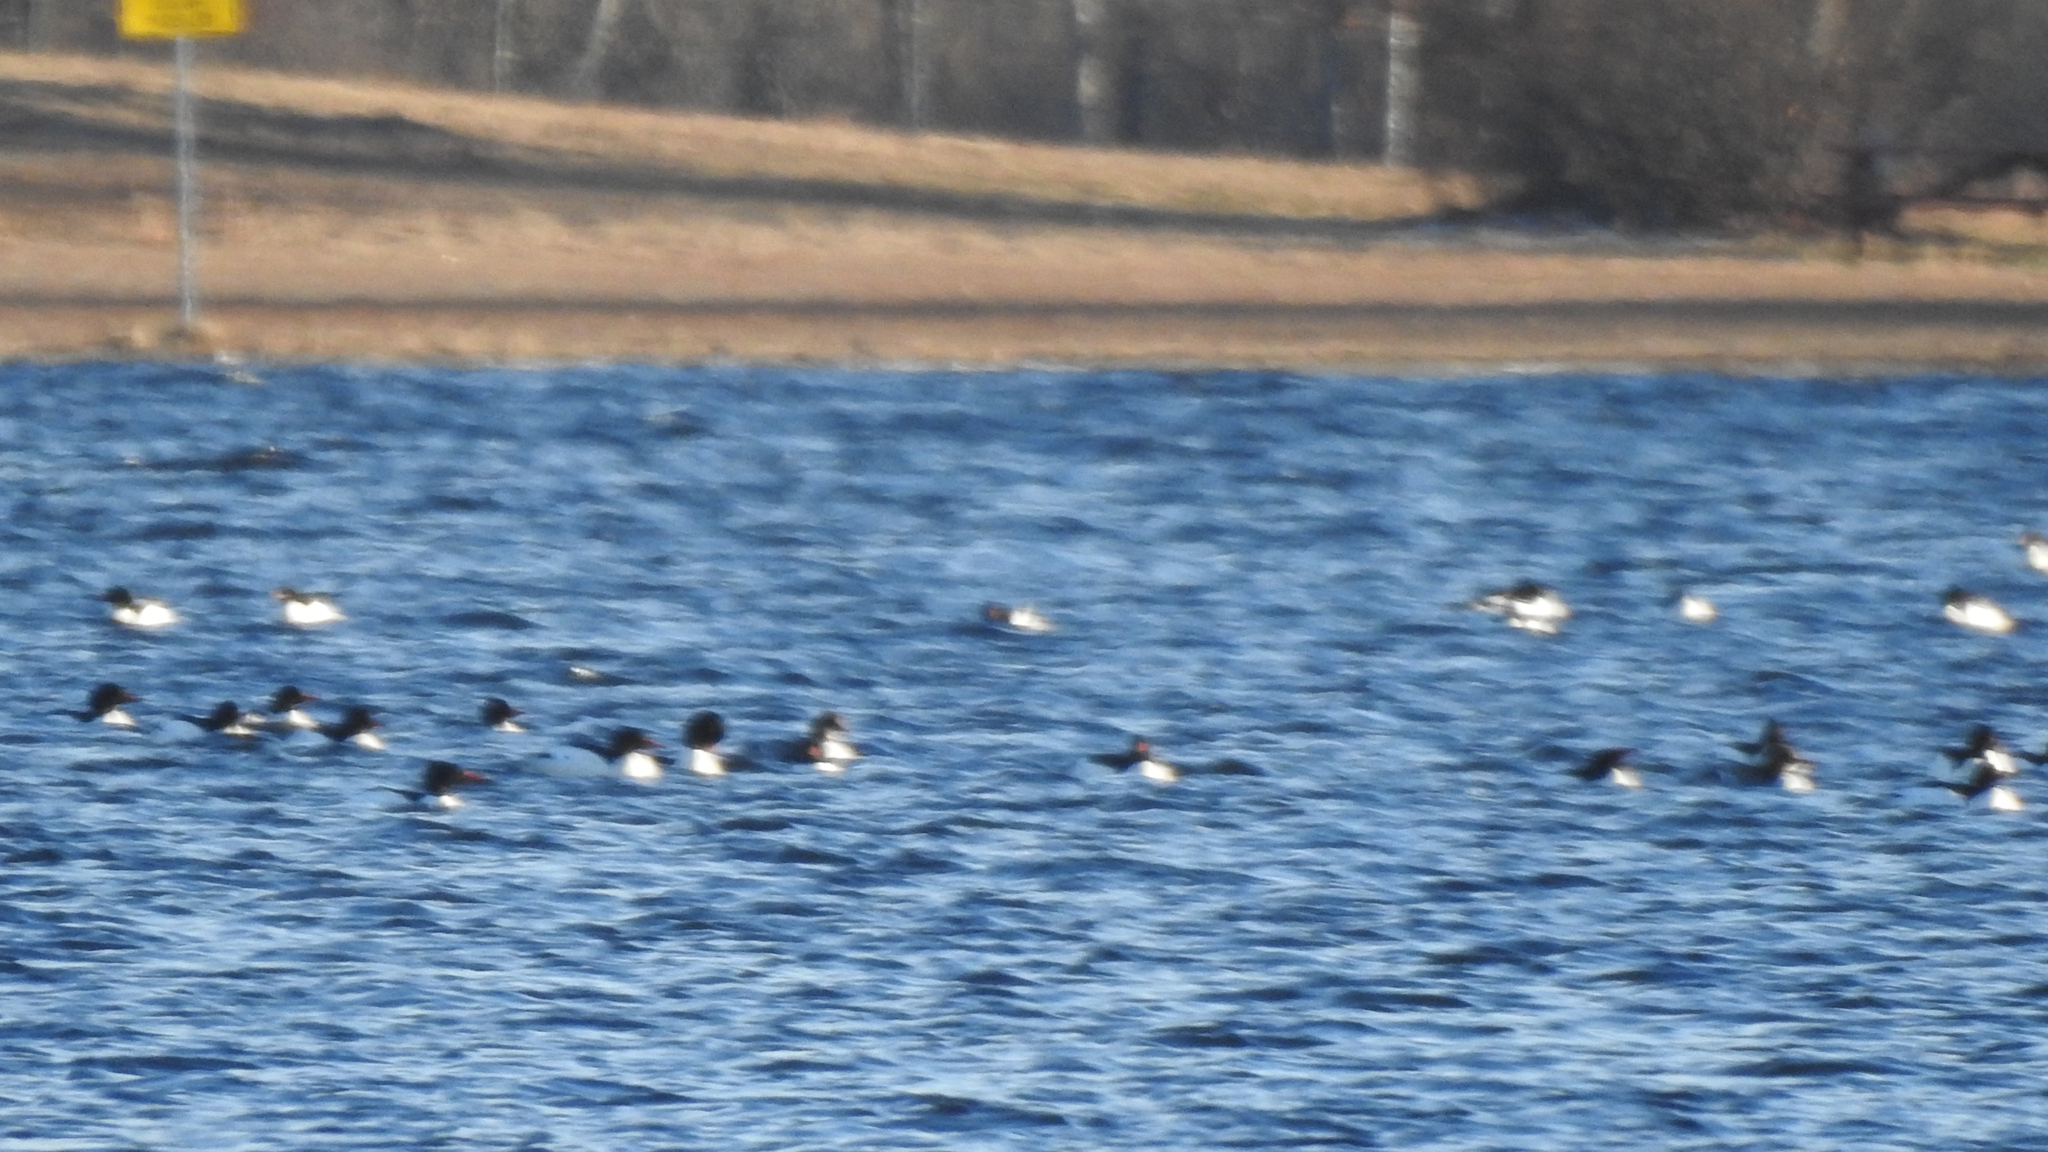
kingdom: Animalia
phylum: Chordata
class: Aves
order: Anseriformes
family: Anatidae
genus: Mergus
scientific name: Mergus merganser
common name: Common merganser
